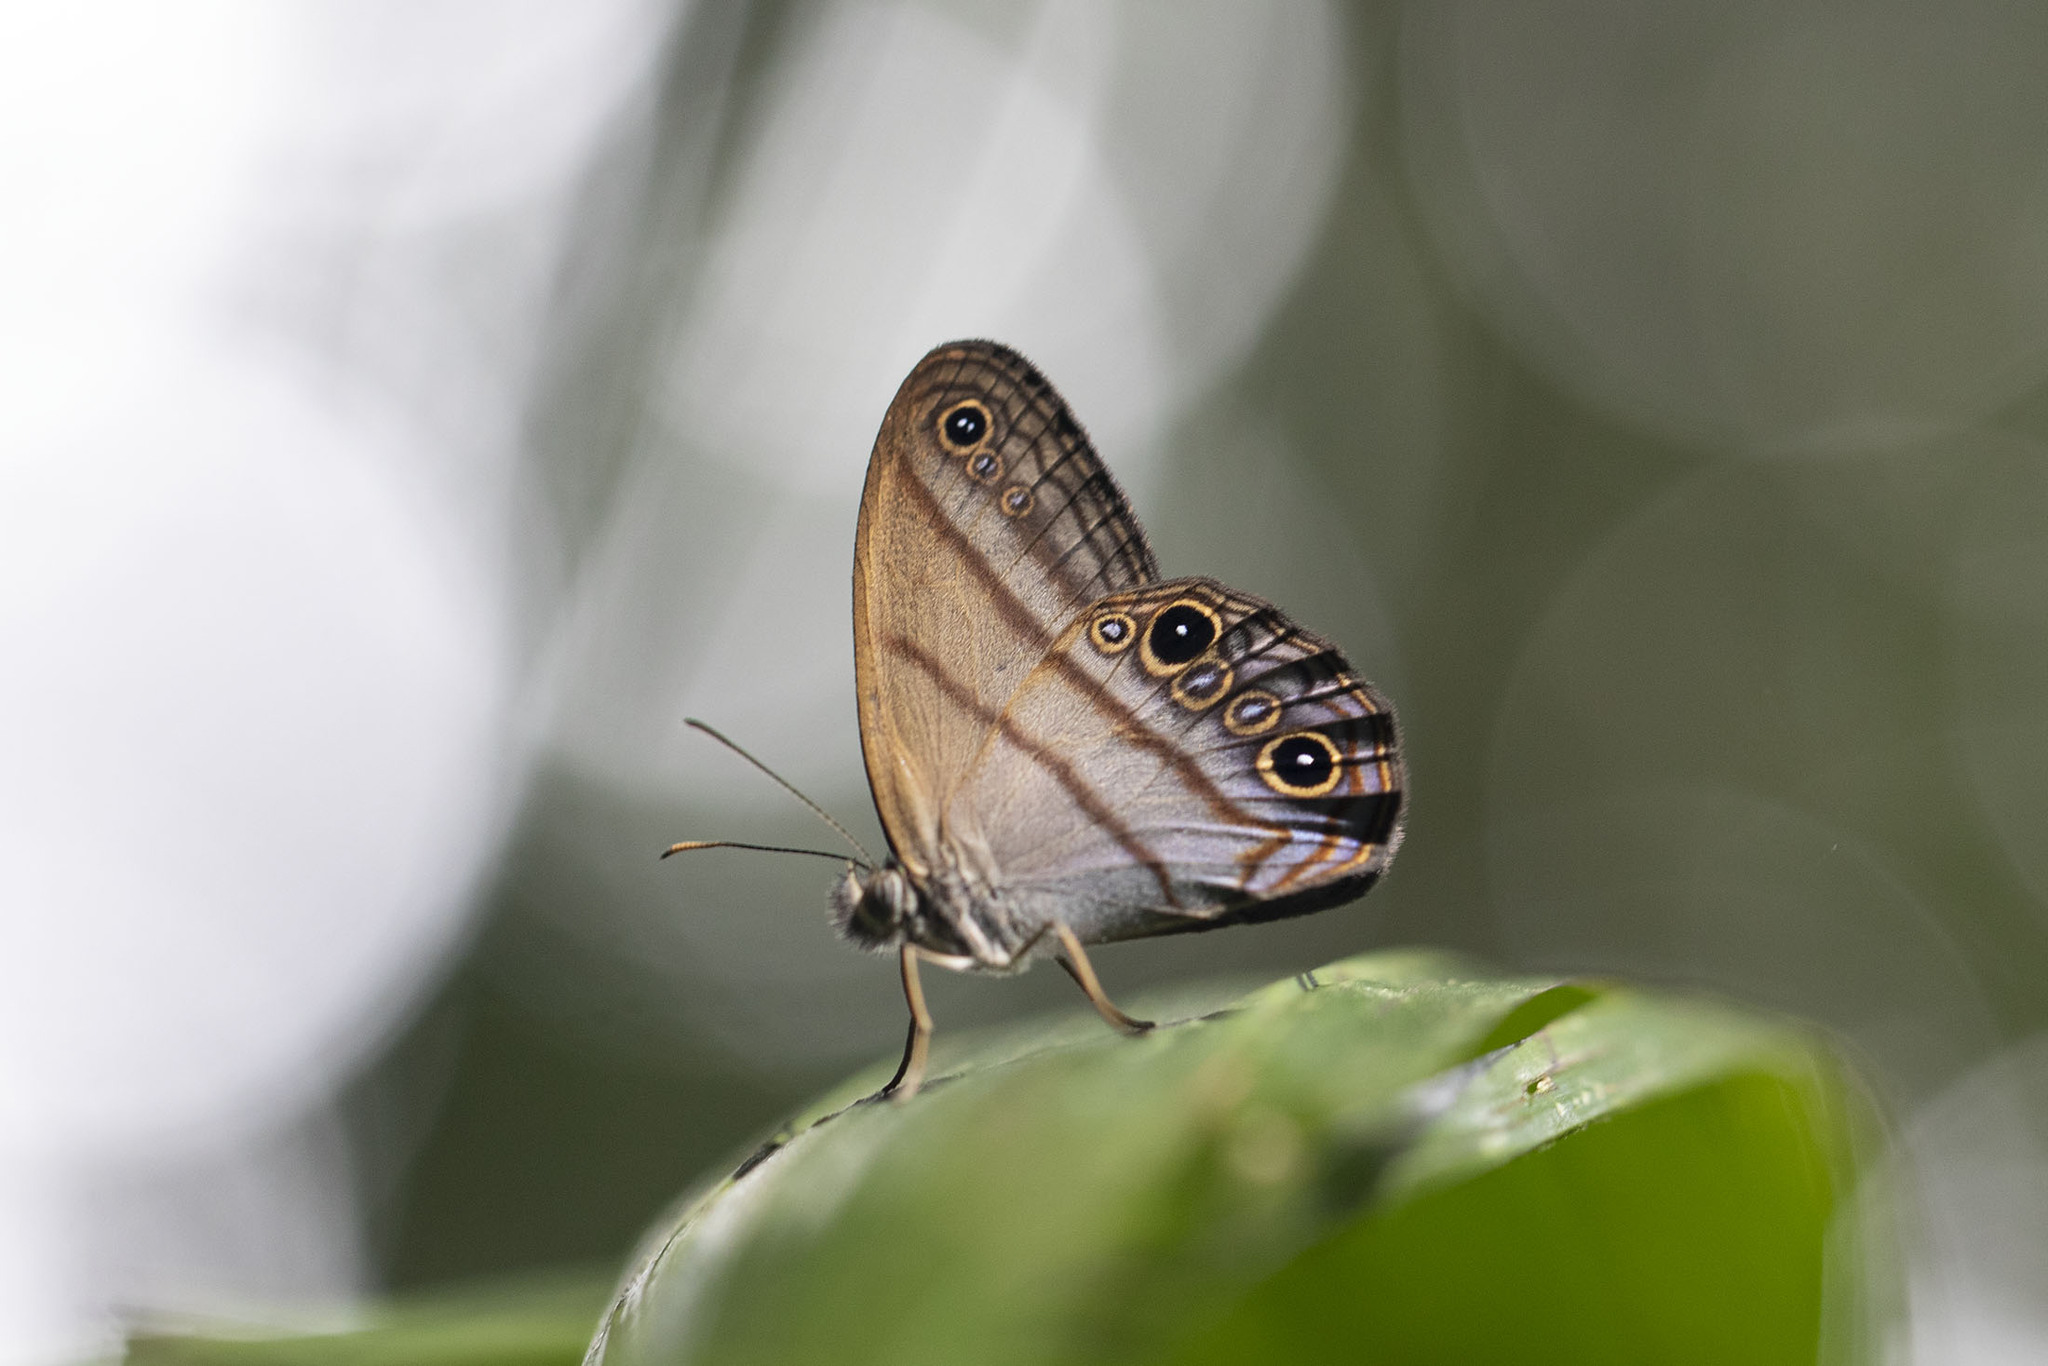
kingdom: Animalia
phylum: Arthropoda
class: Insecta
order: Lepidoptera
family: Nymphalidae
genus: Amiga
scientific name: Amiga arnaca
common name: Blue-topped satyr
